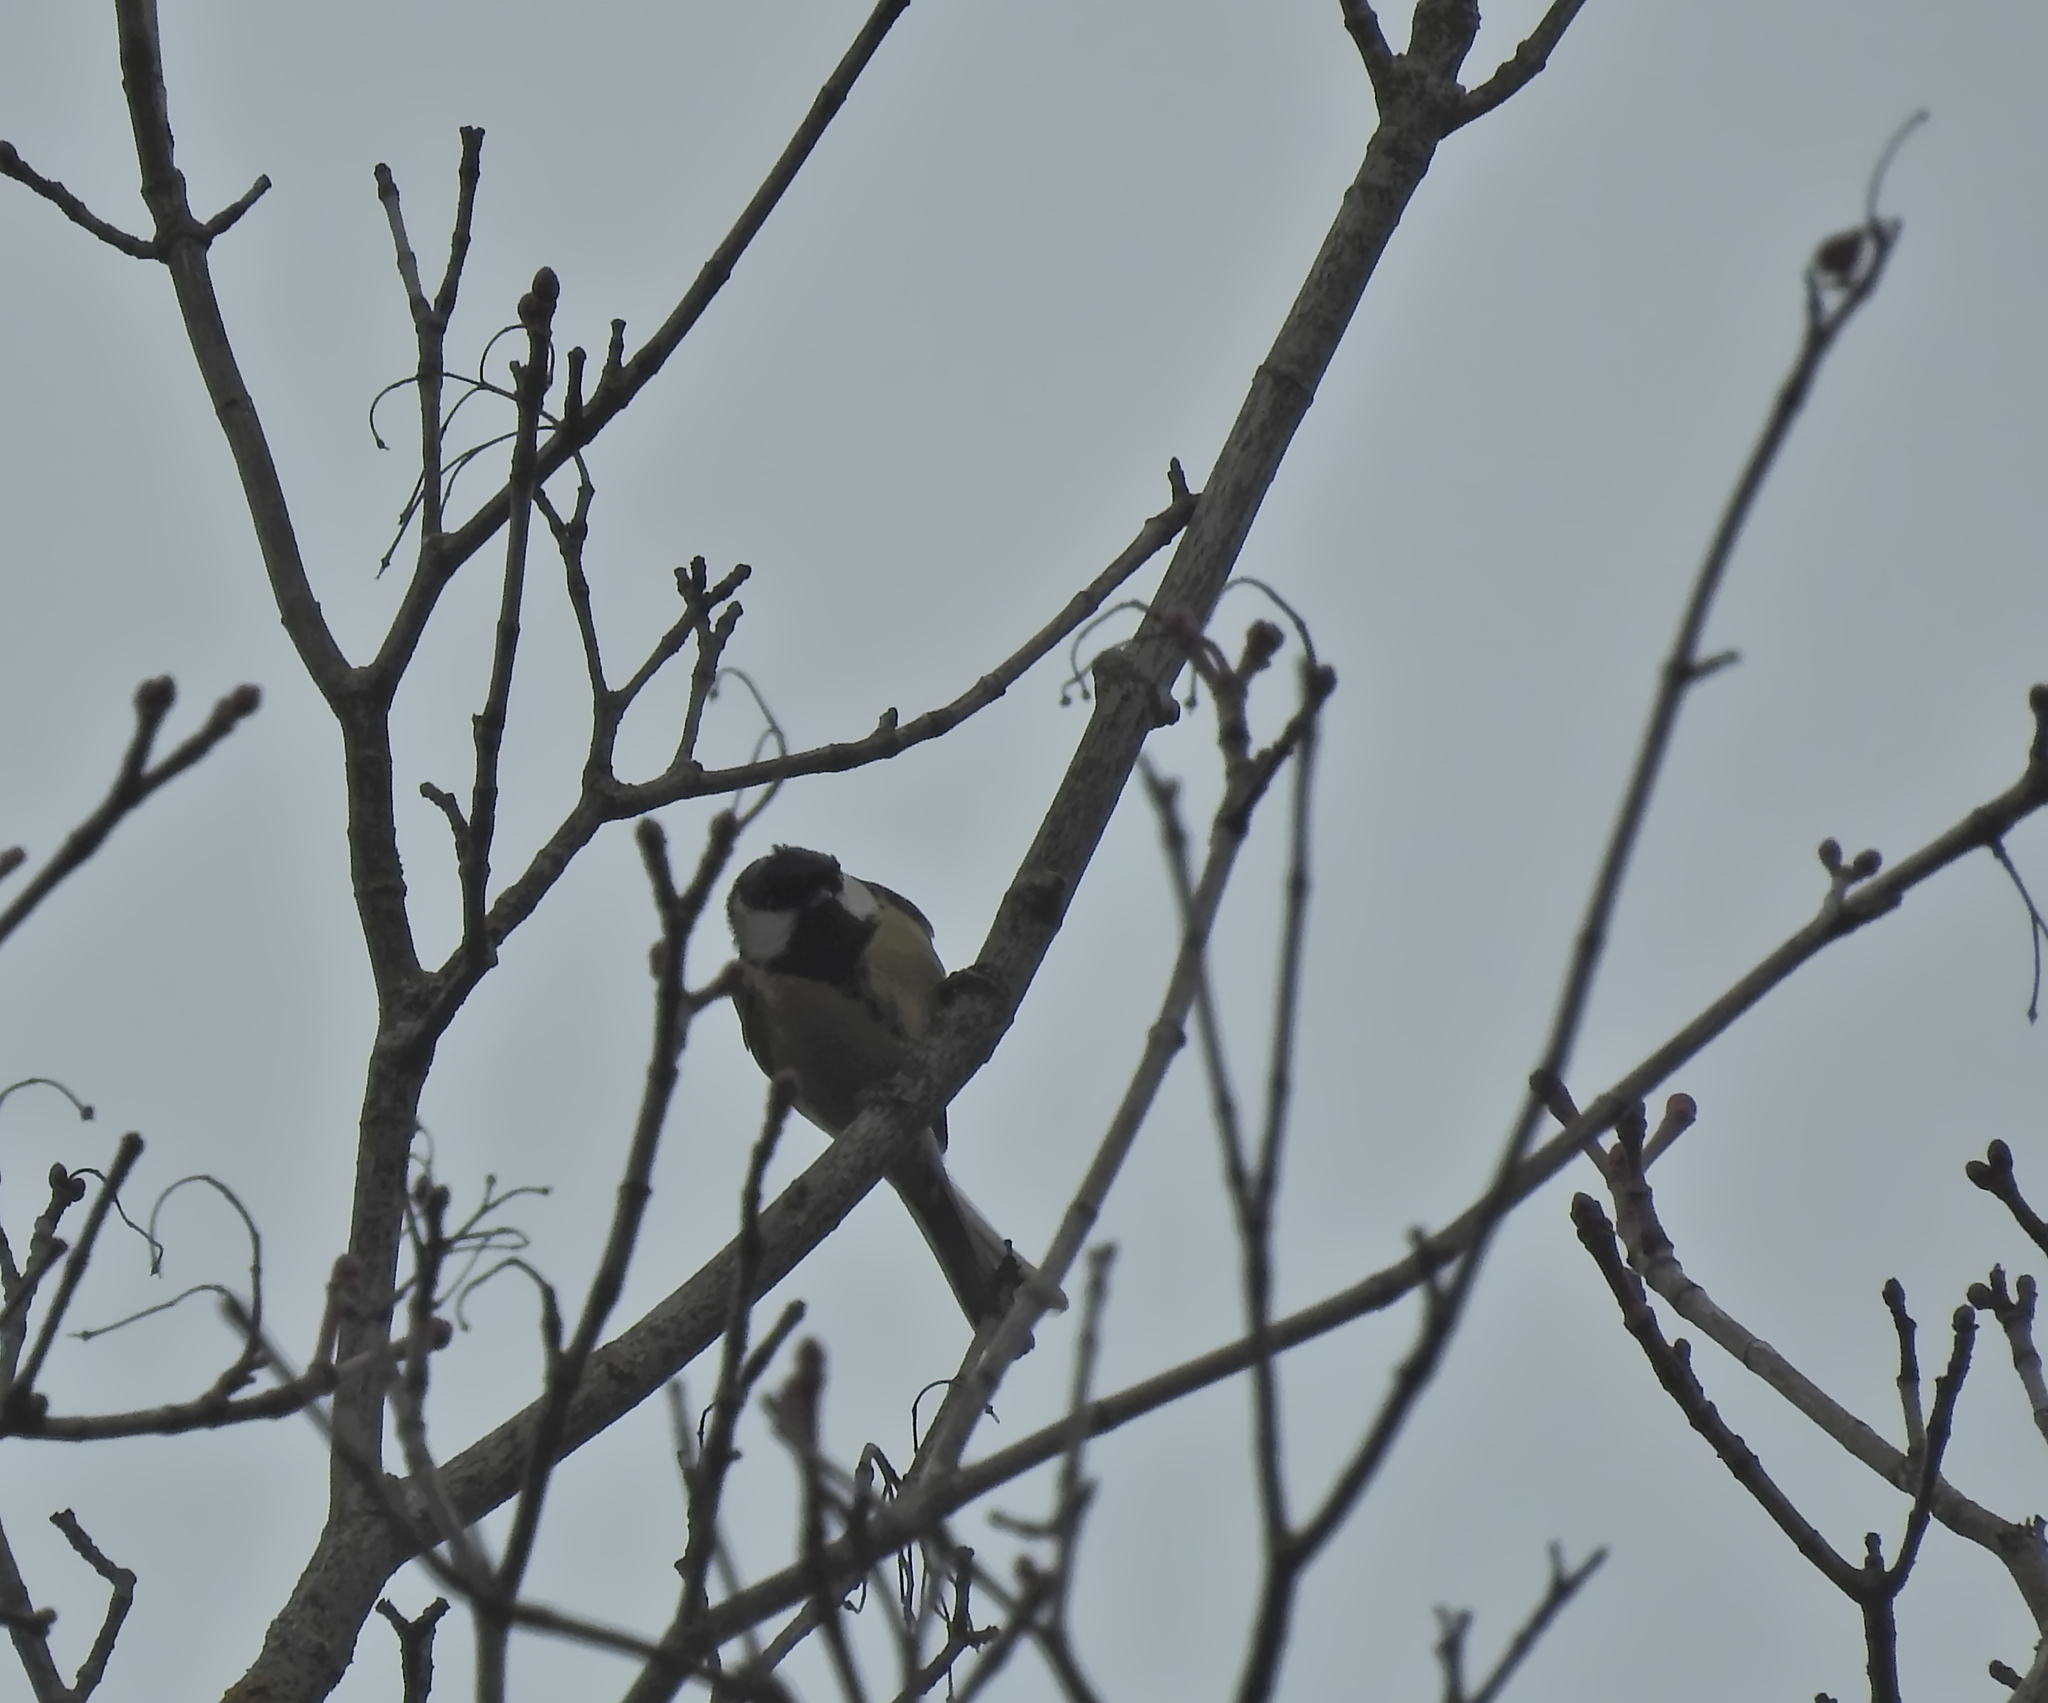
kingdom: Animalia
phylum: Chordata
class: Aves
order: Passeriformes
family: Paridae
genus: Parus
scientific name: Parus major
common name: Great tit
